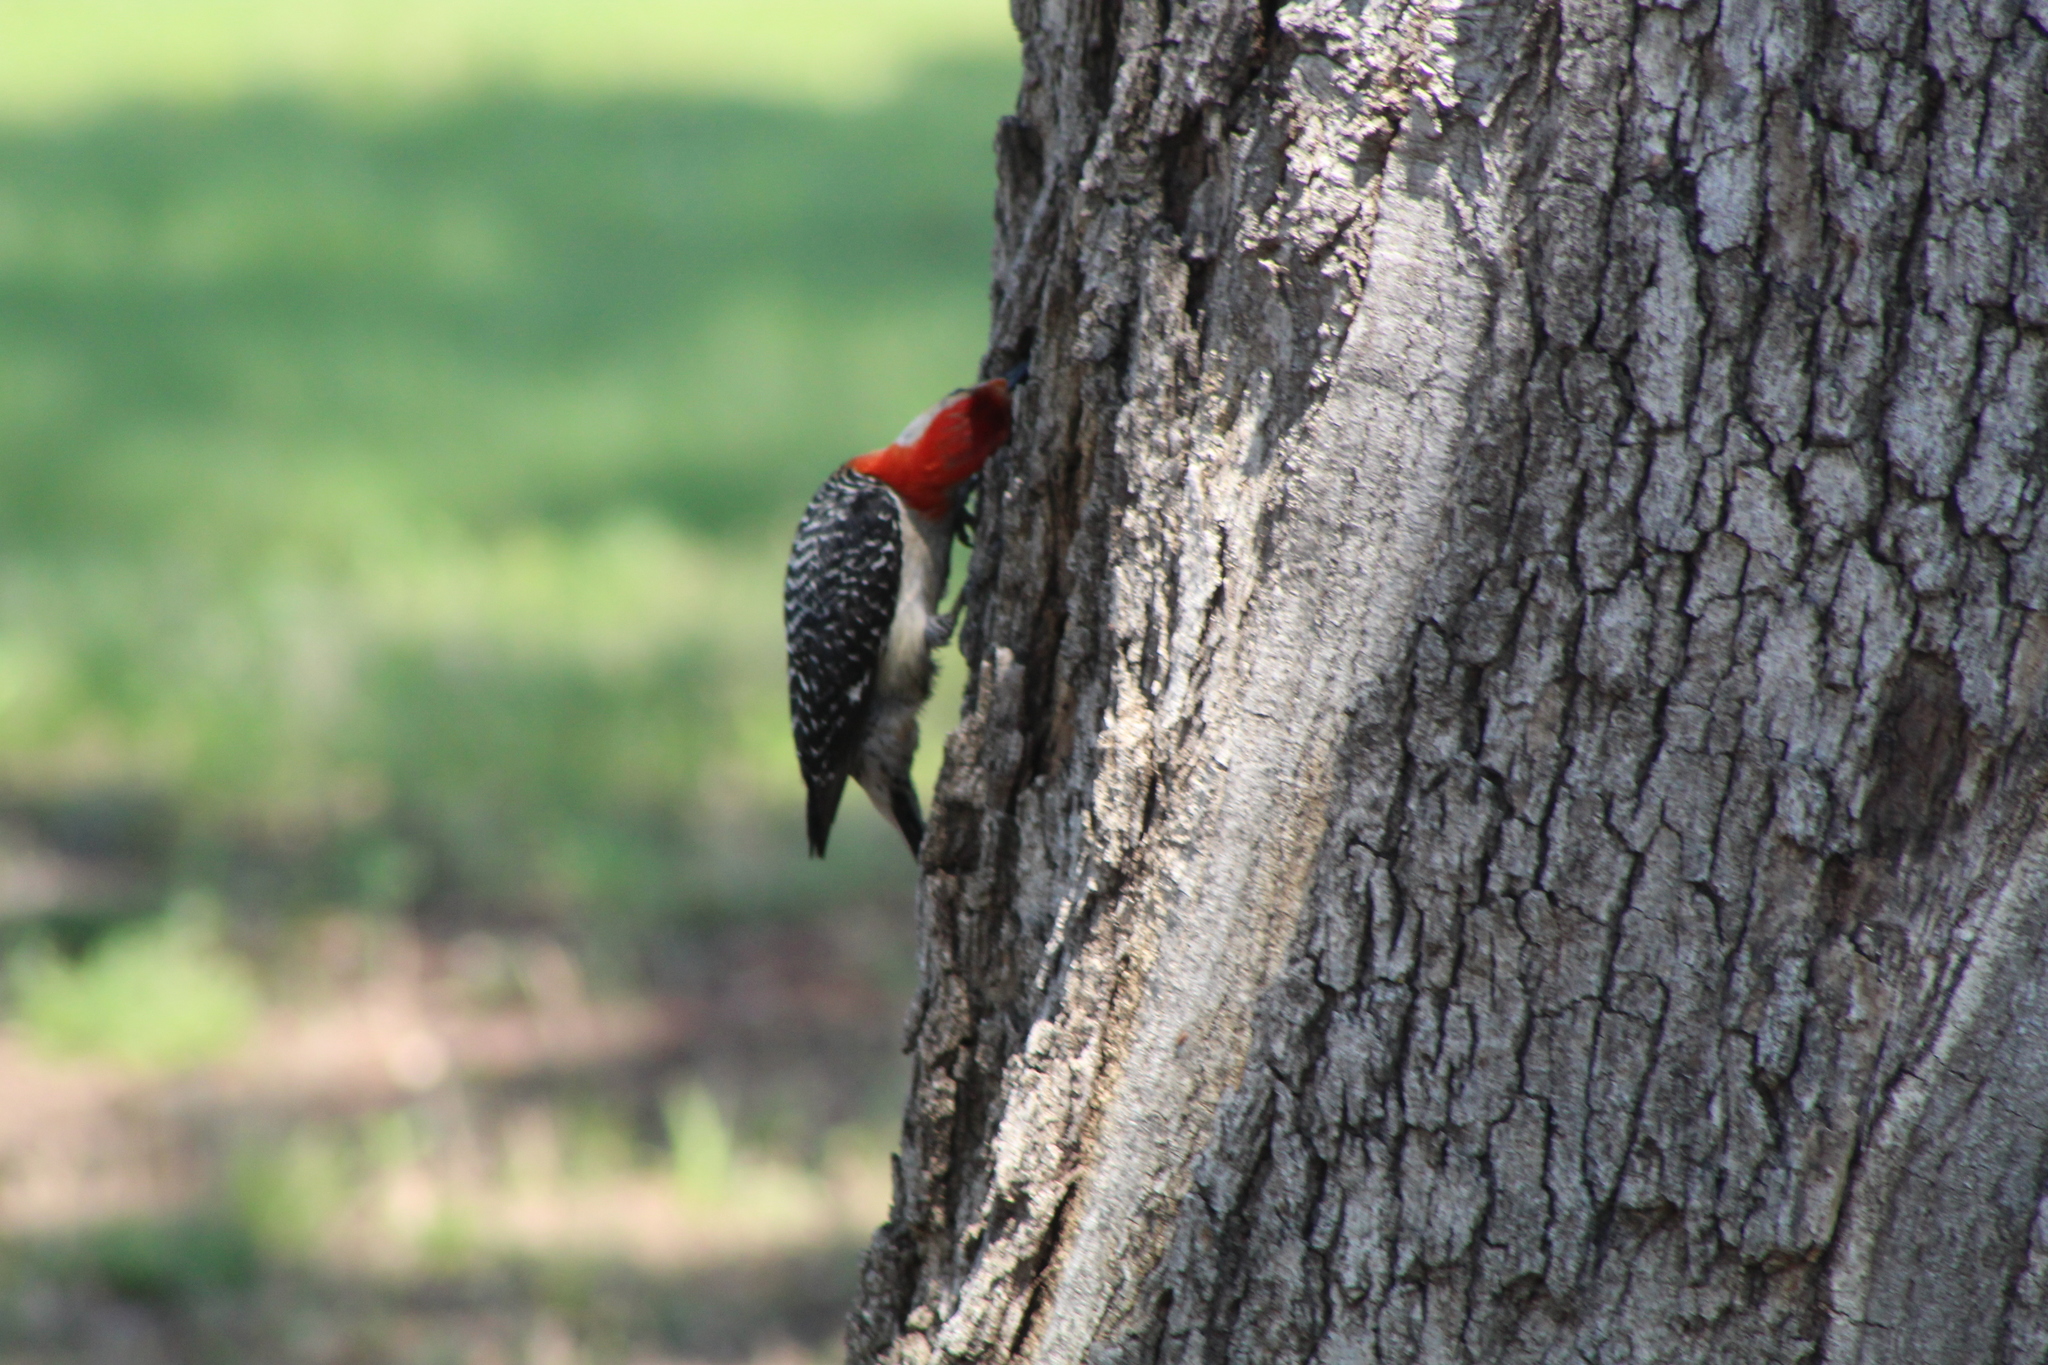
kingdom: Animalia
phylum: Chordata
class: Aves
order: Piciformes
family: Picidae
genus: Melanerpes
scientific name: Melanerpes carolinus
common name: Red-bellied woodpecker
